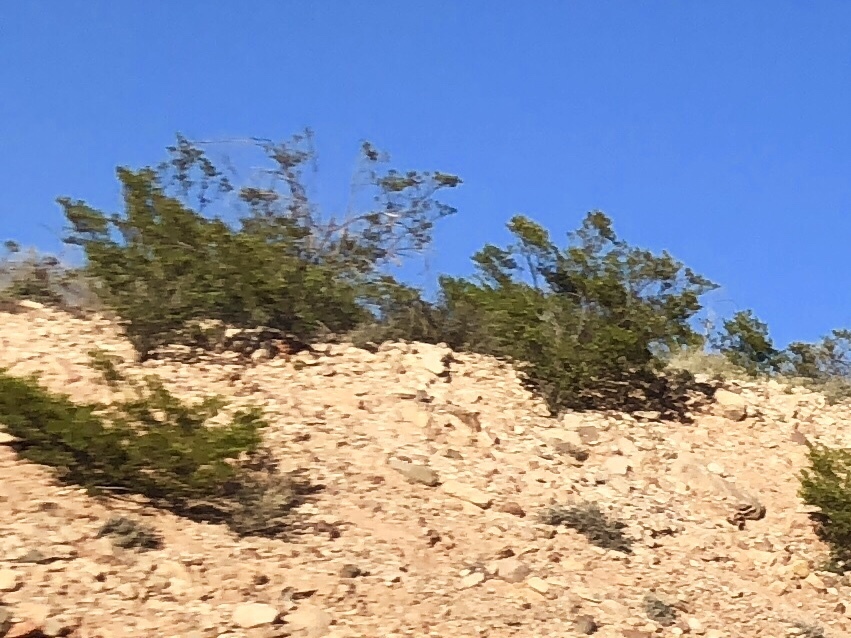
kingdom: Plantae
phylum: Tracheophyta
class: Magnoliopsida
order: Zygophyllales
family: Zygophyllaceae
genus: Larrea
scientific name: Larrea tridentata
